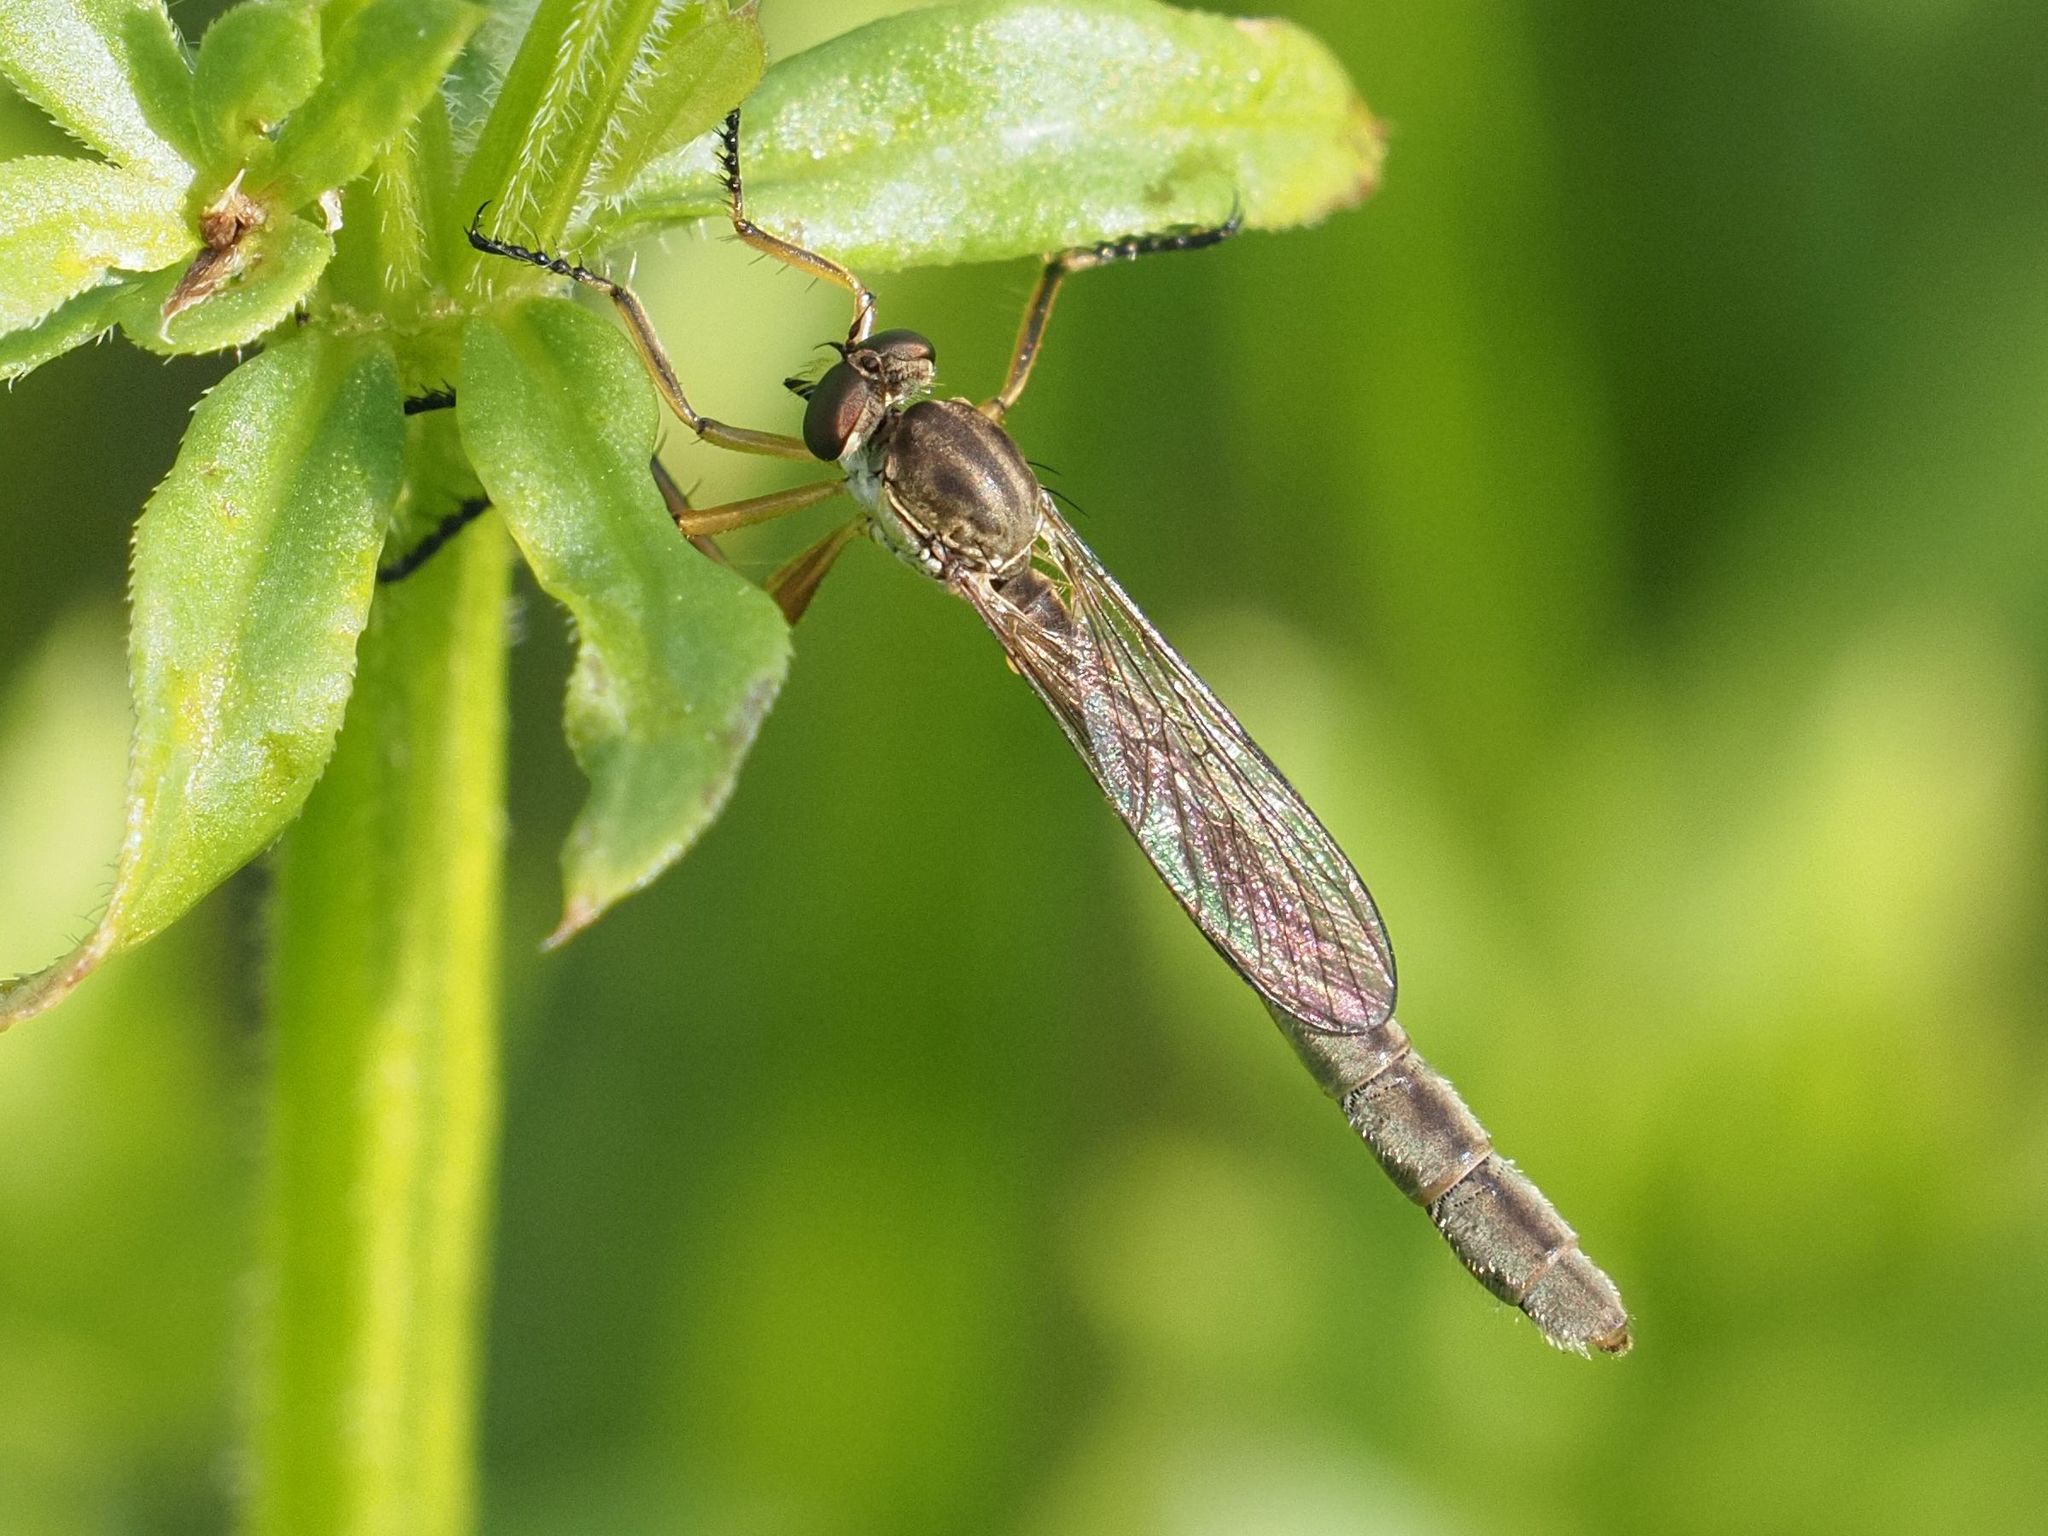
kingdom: Animalia
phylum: Arthropoda
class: Insecta
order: Diptera
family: Asilidae
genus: Leptogaster
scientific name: Leptogaster cylindrica
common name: Striped slender robberfly
